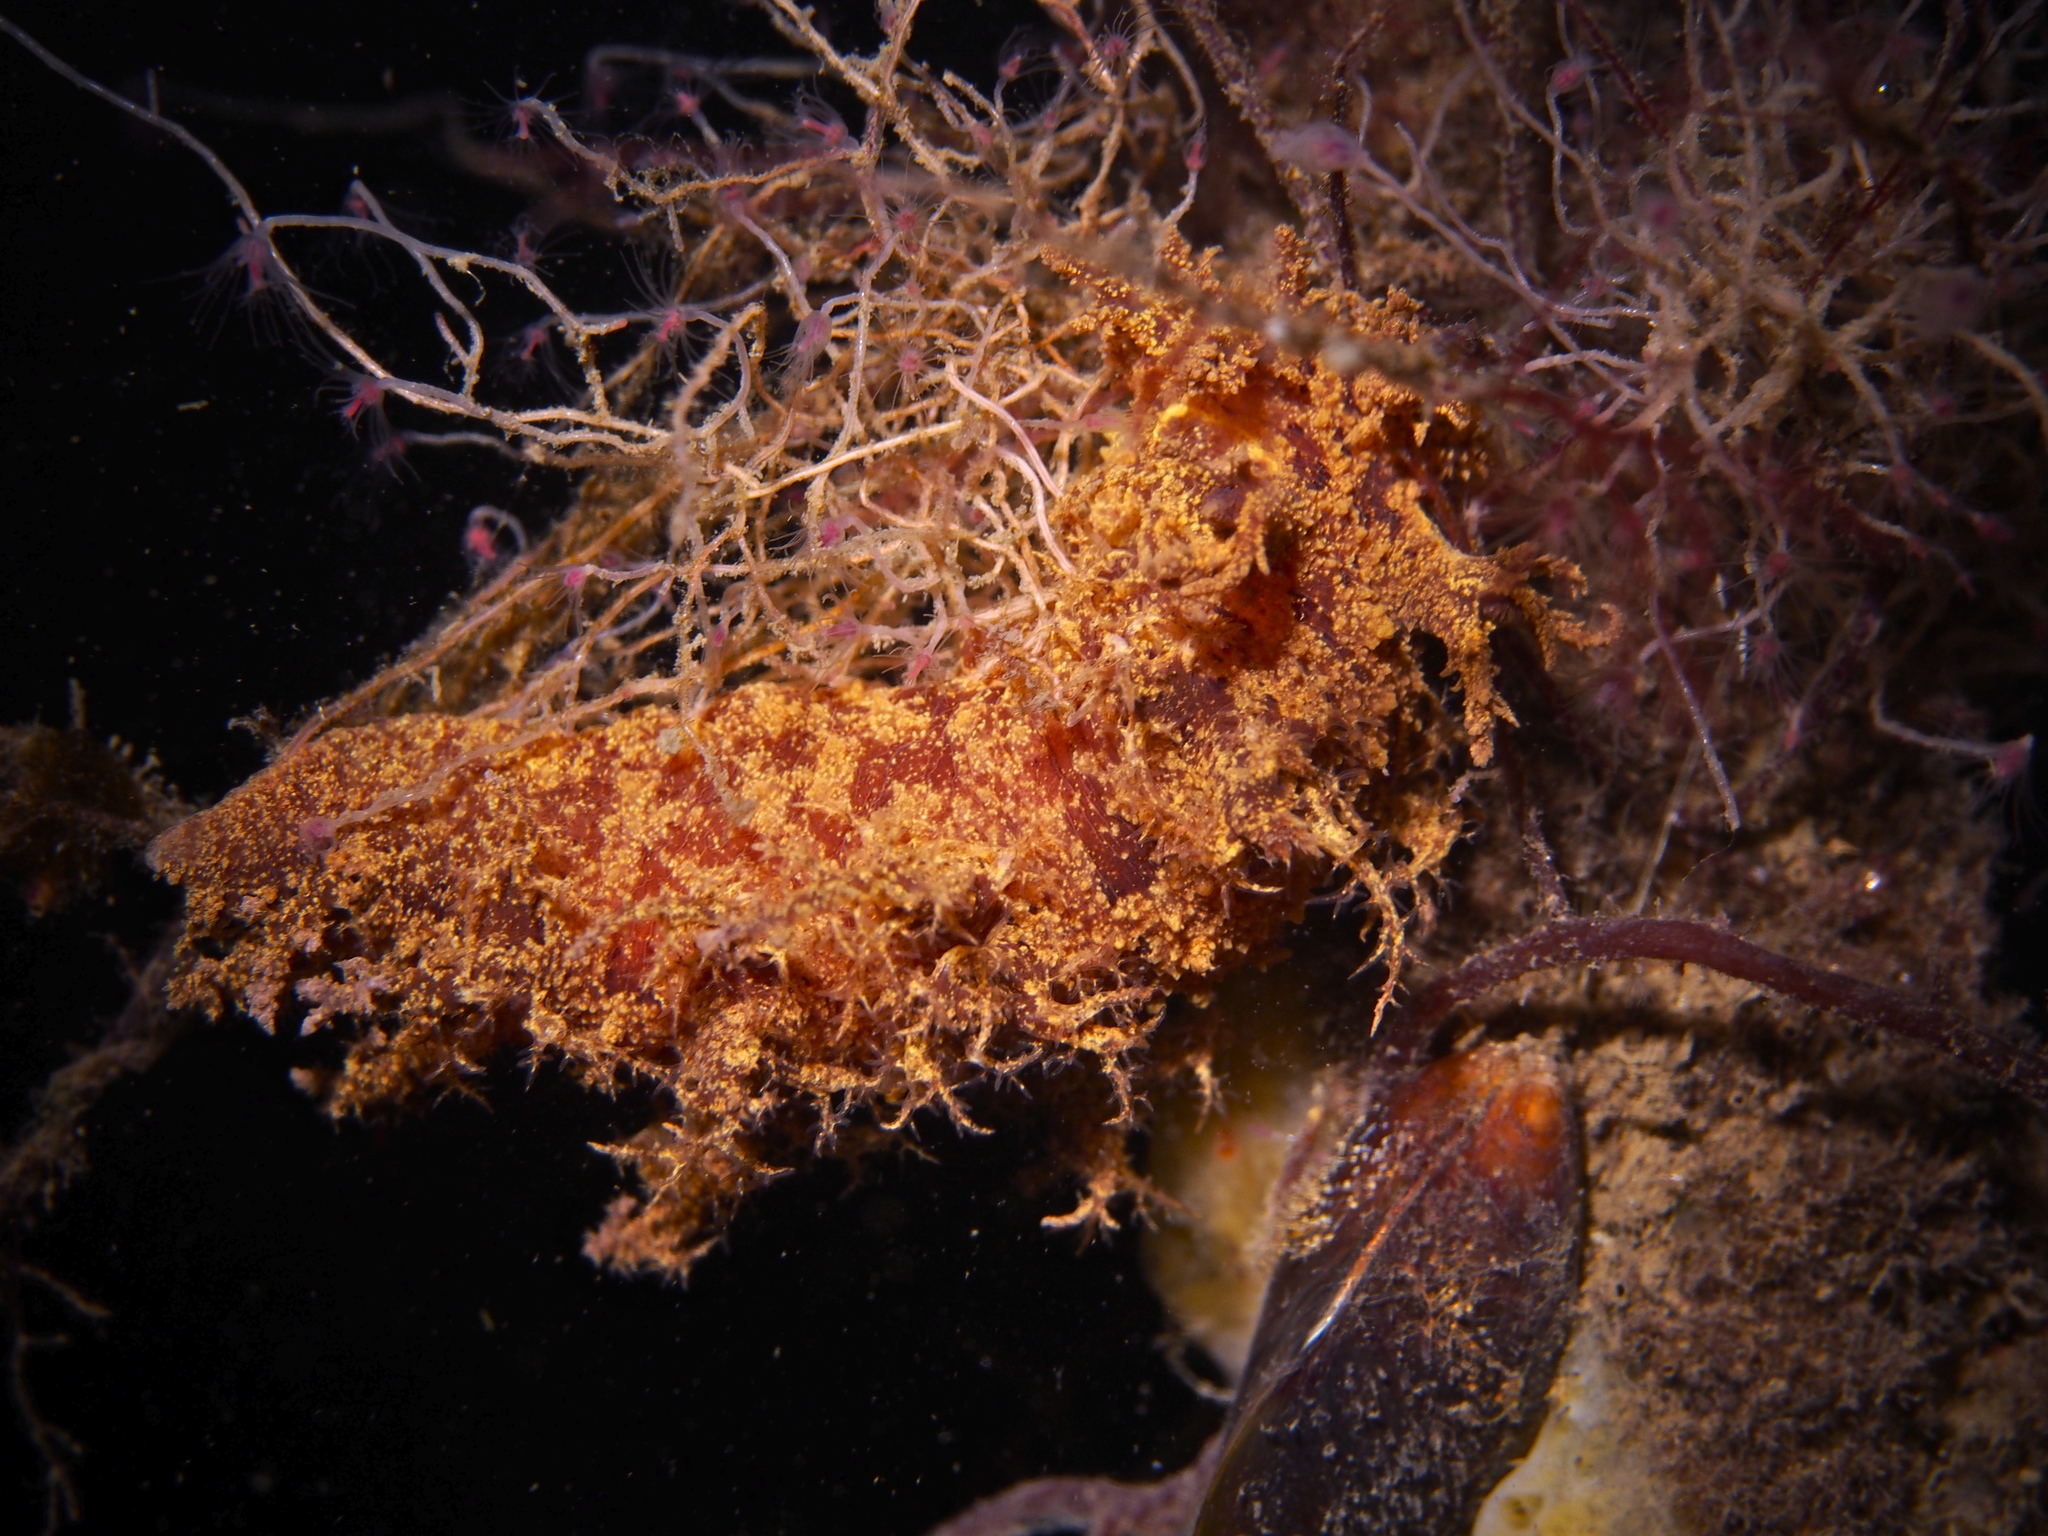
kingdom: Animalia
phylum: Mollusca
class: Gastropoda
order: Nudibranchia
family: Dendronotidae
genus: Dendronotus
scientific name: Dendronotus europaeus
